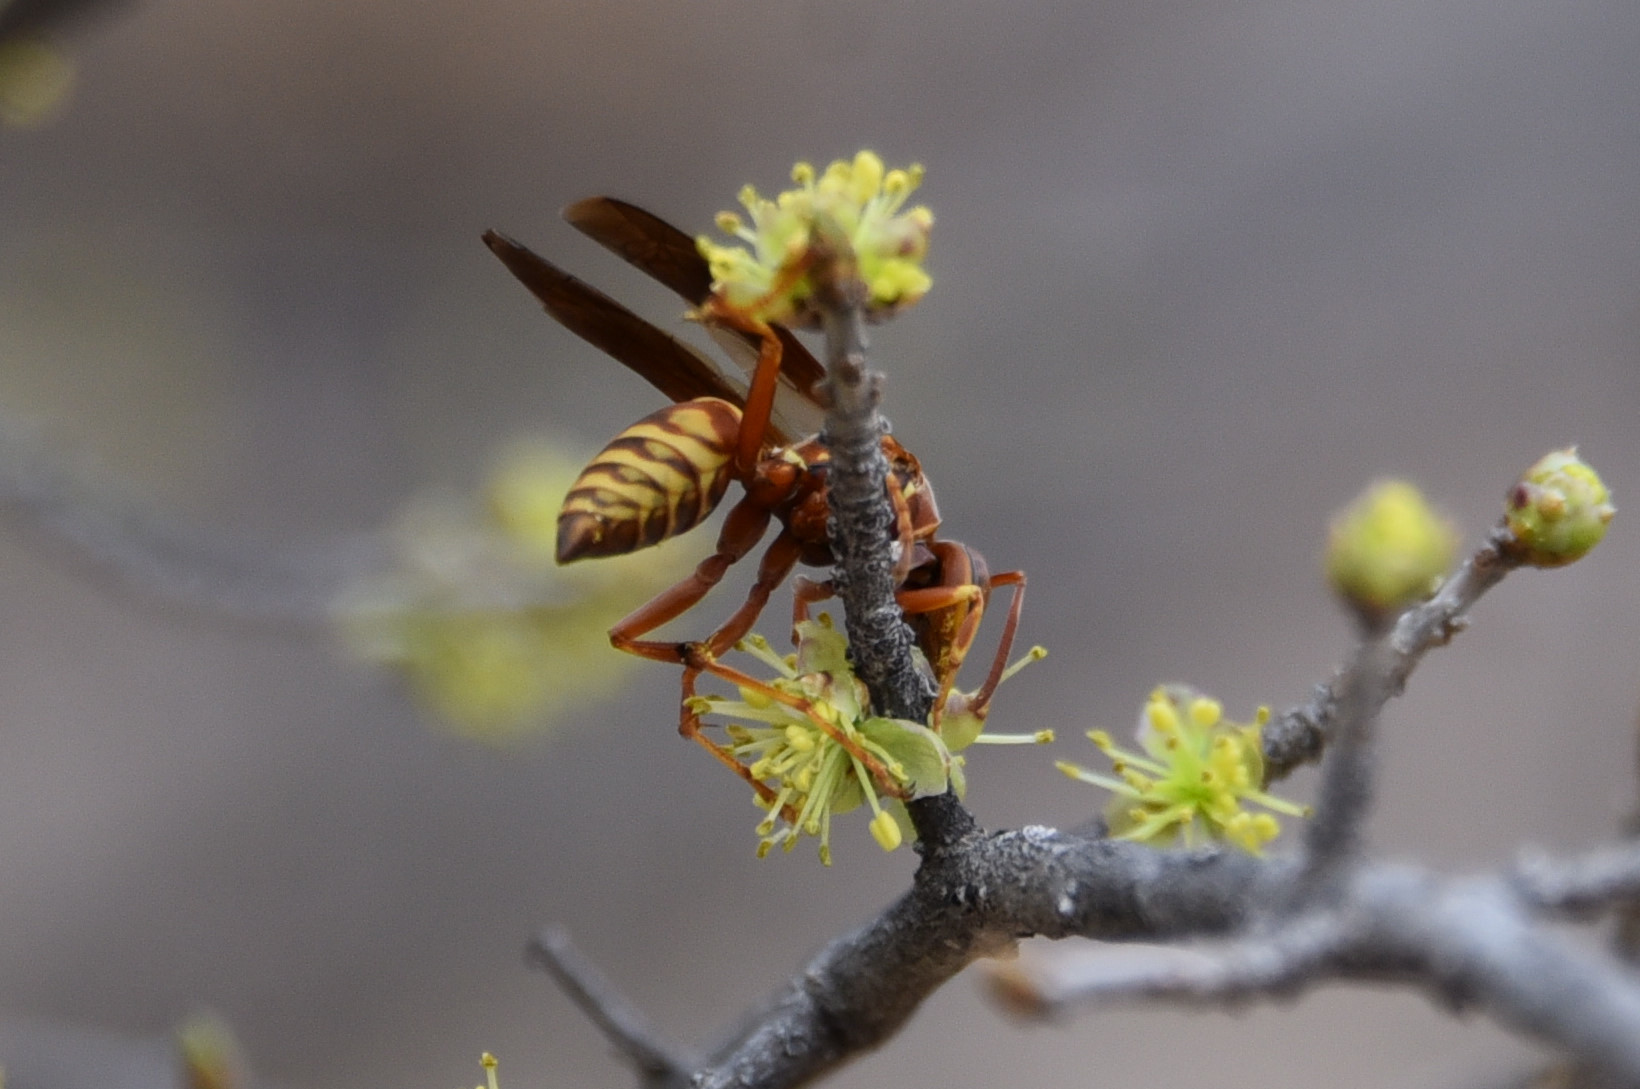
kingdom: Animalia
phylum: Arthropoda
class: Insecta
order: Hymenoptera
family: Vespidae
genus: Fuscopolistes
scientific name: Fuscopolistes
